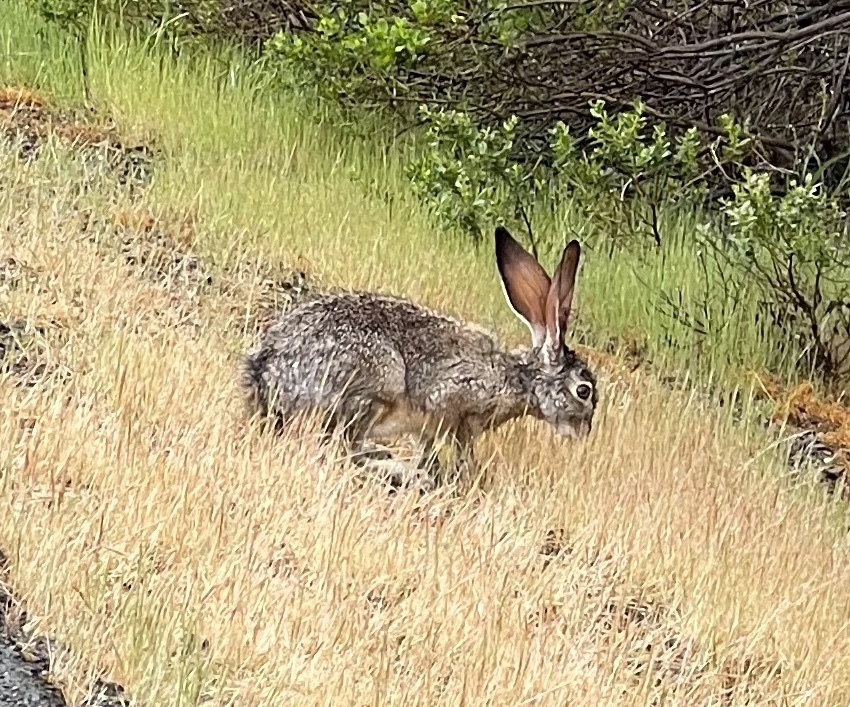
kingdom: Animalia
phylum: Chordata
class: Mammalia
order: Lagomorpha
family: Leporidae
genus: Lepus
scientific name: Lepus californicus
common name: Black-tailed jackrabbit
